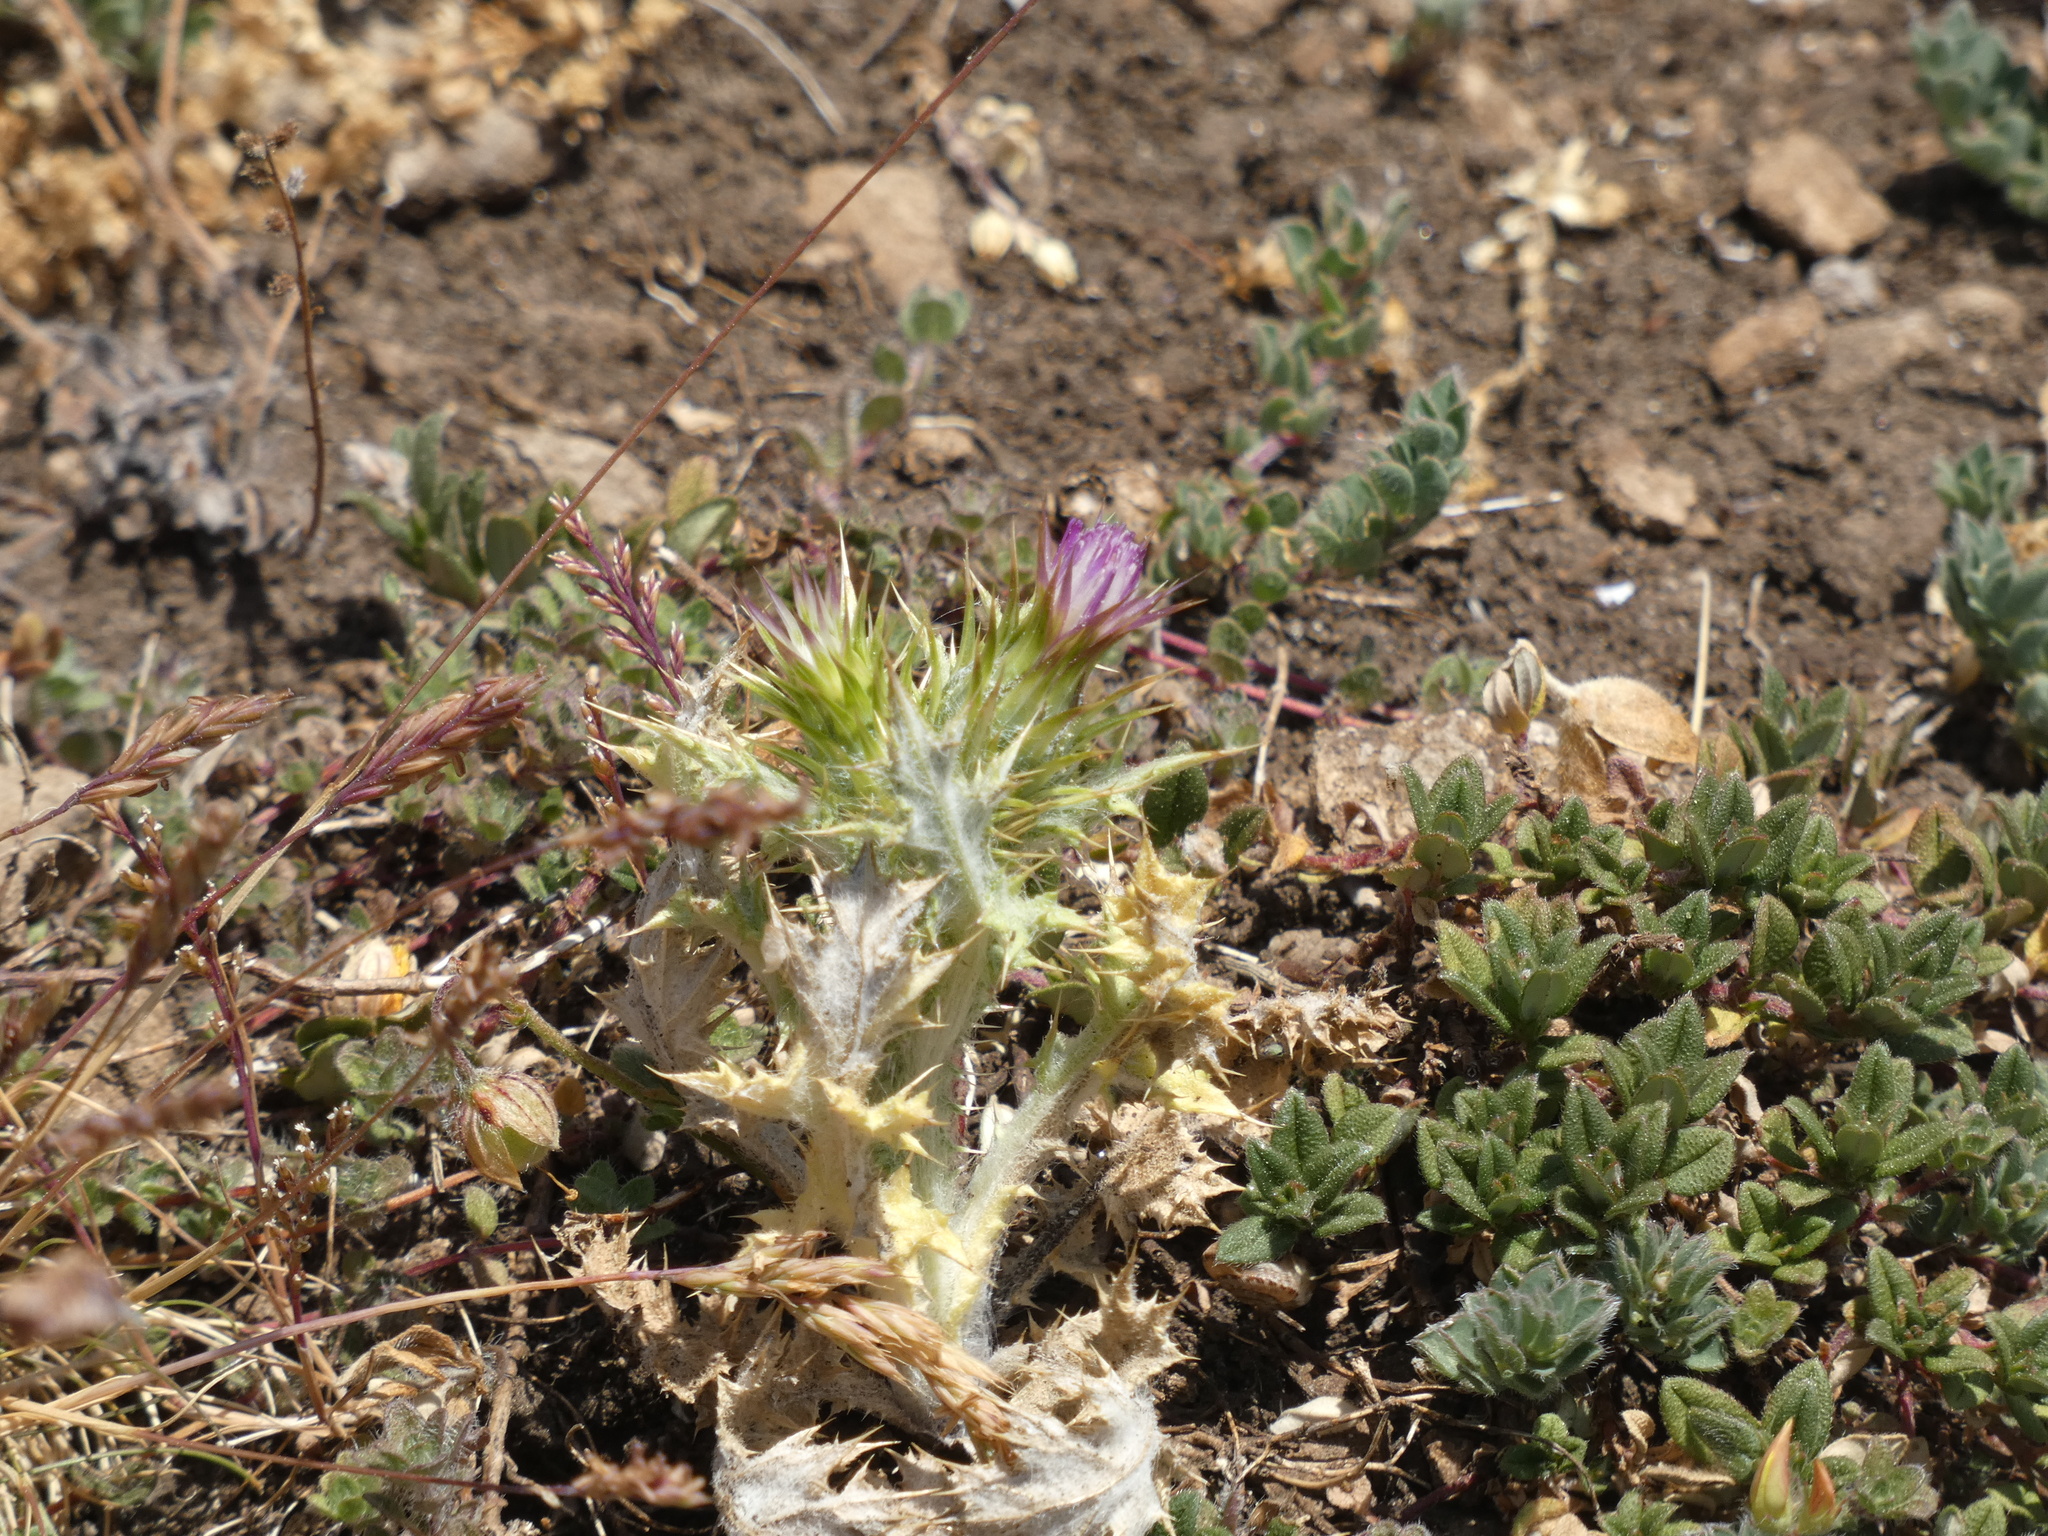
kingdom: Plantae
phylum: Tracheophyta
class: Magnoliopsida
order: Asterales
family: Asteraceae
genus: Carduus
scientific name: Carduus tenuiflorus
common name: Slender thistle
